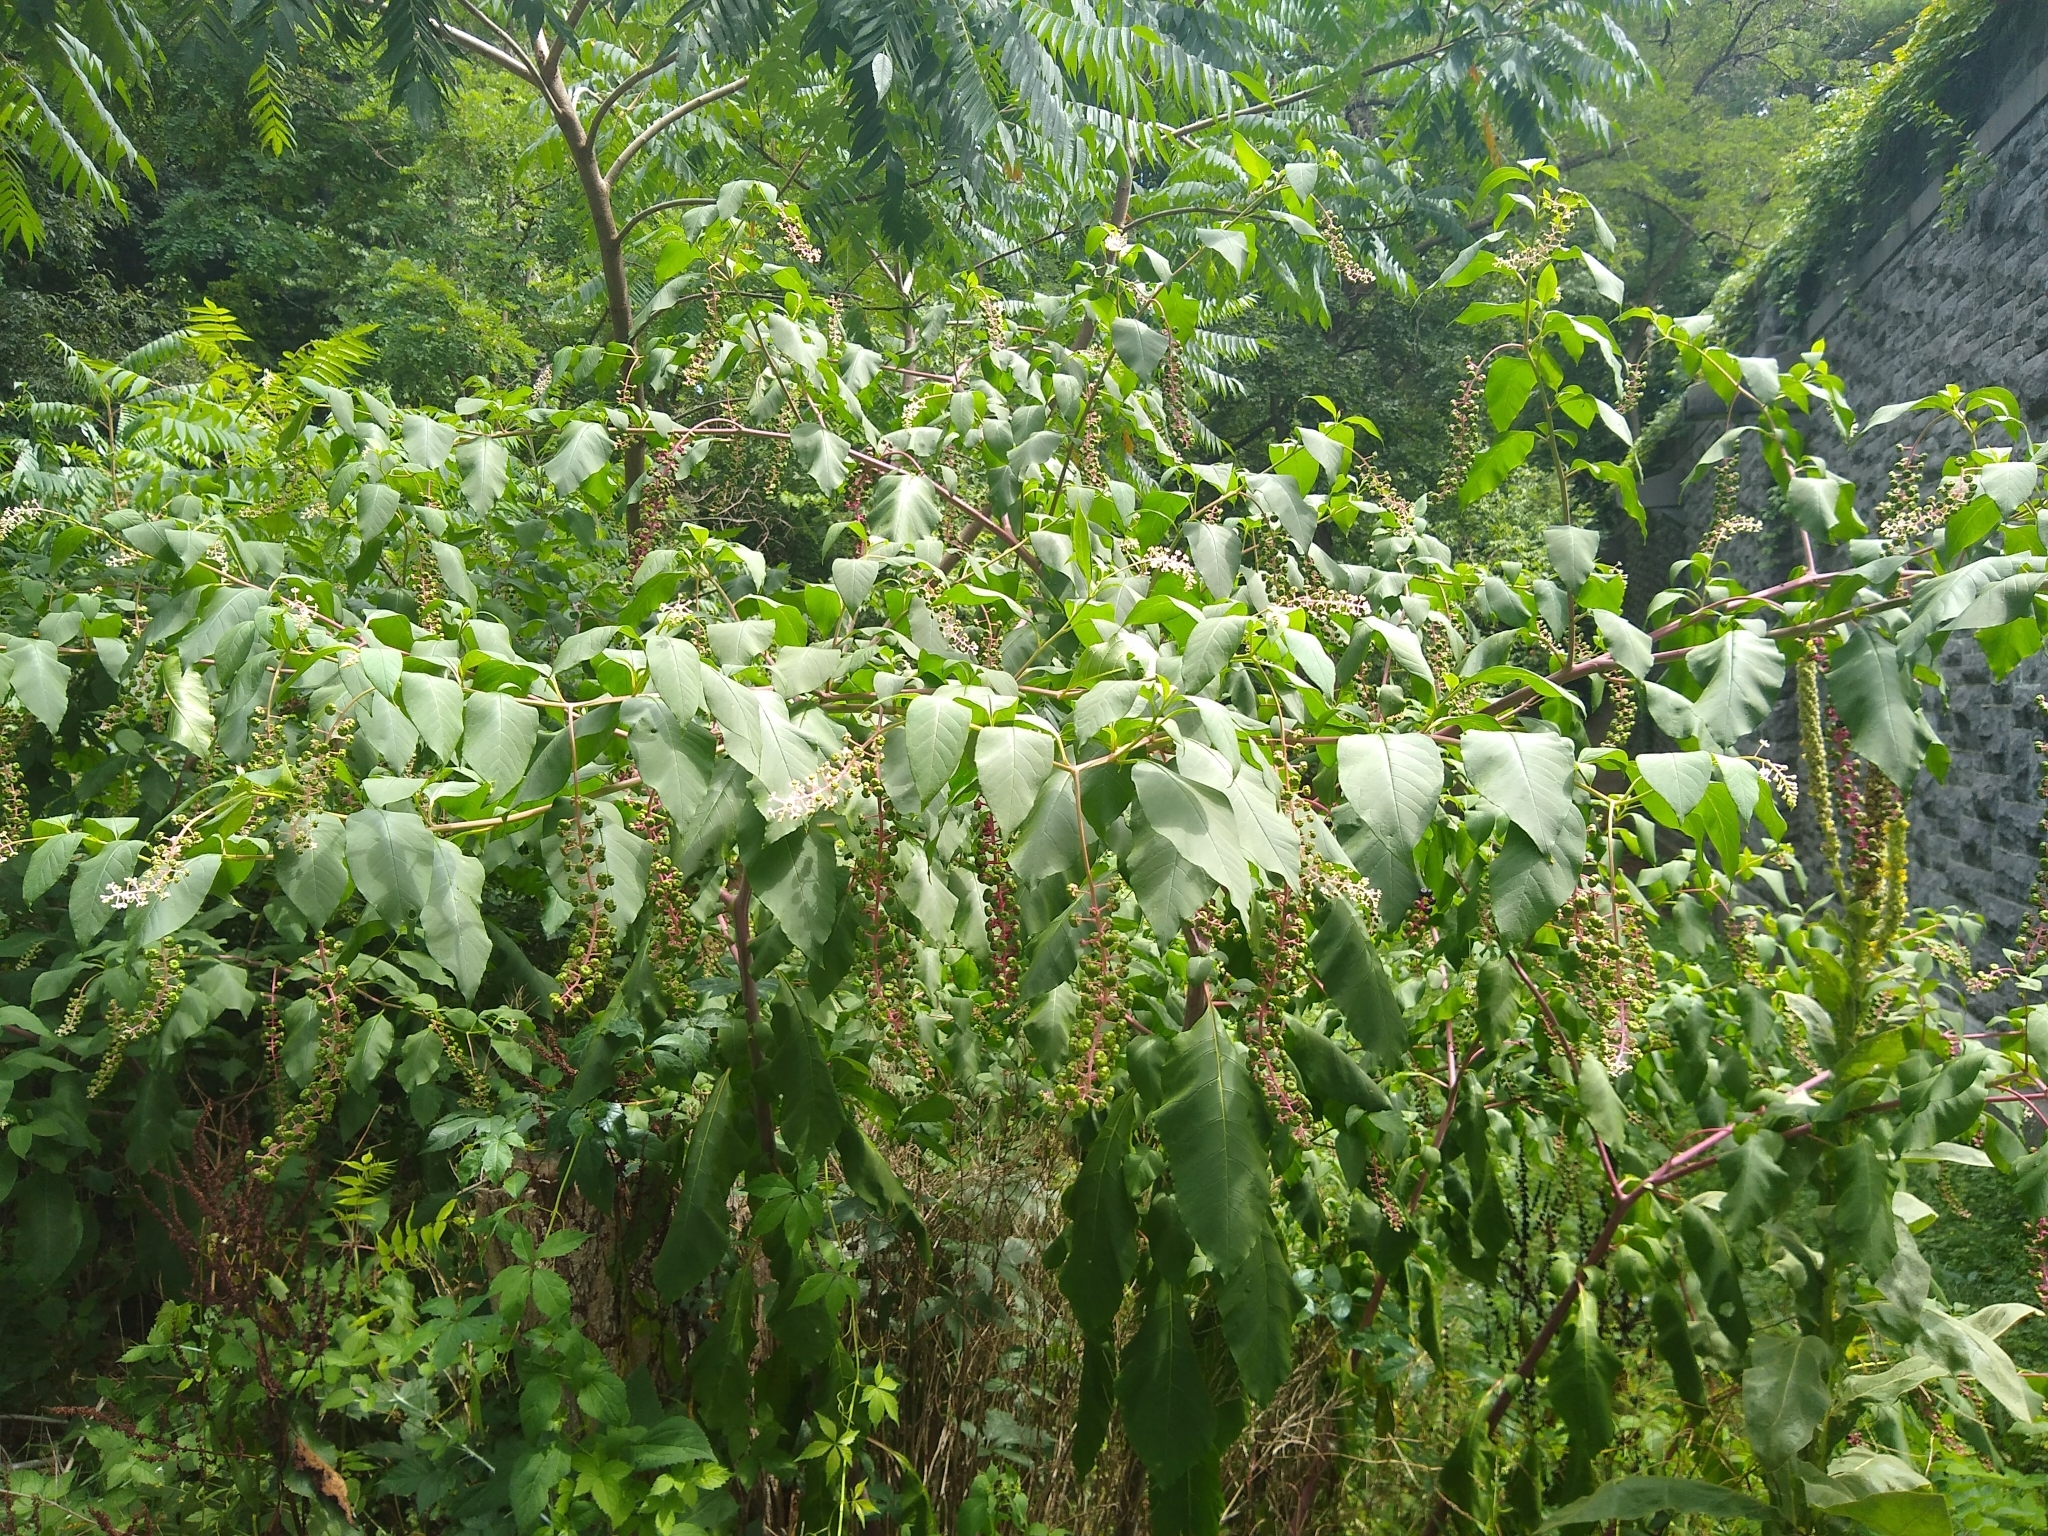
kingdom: Plantae
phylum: Tracheophyta
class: Magnoliopsida
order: Caryophyllales
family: Phytolaccaceae
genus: Phytolacca
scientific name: Phytolacca americana
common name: American pokeweed
